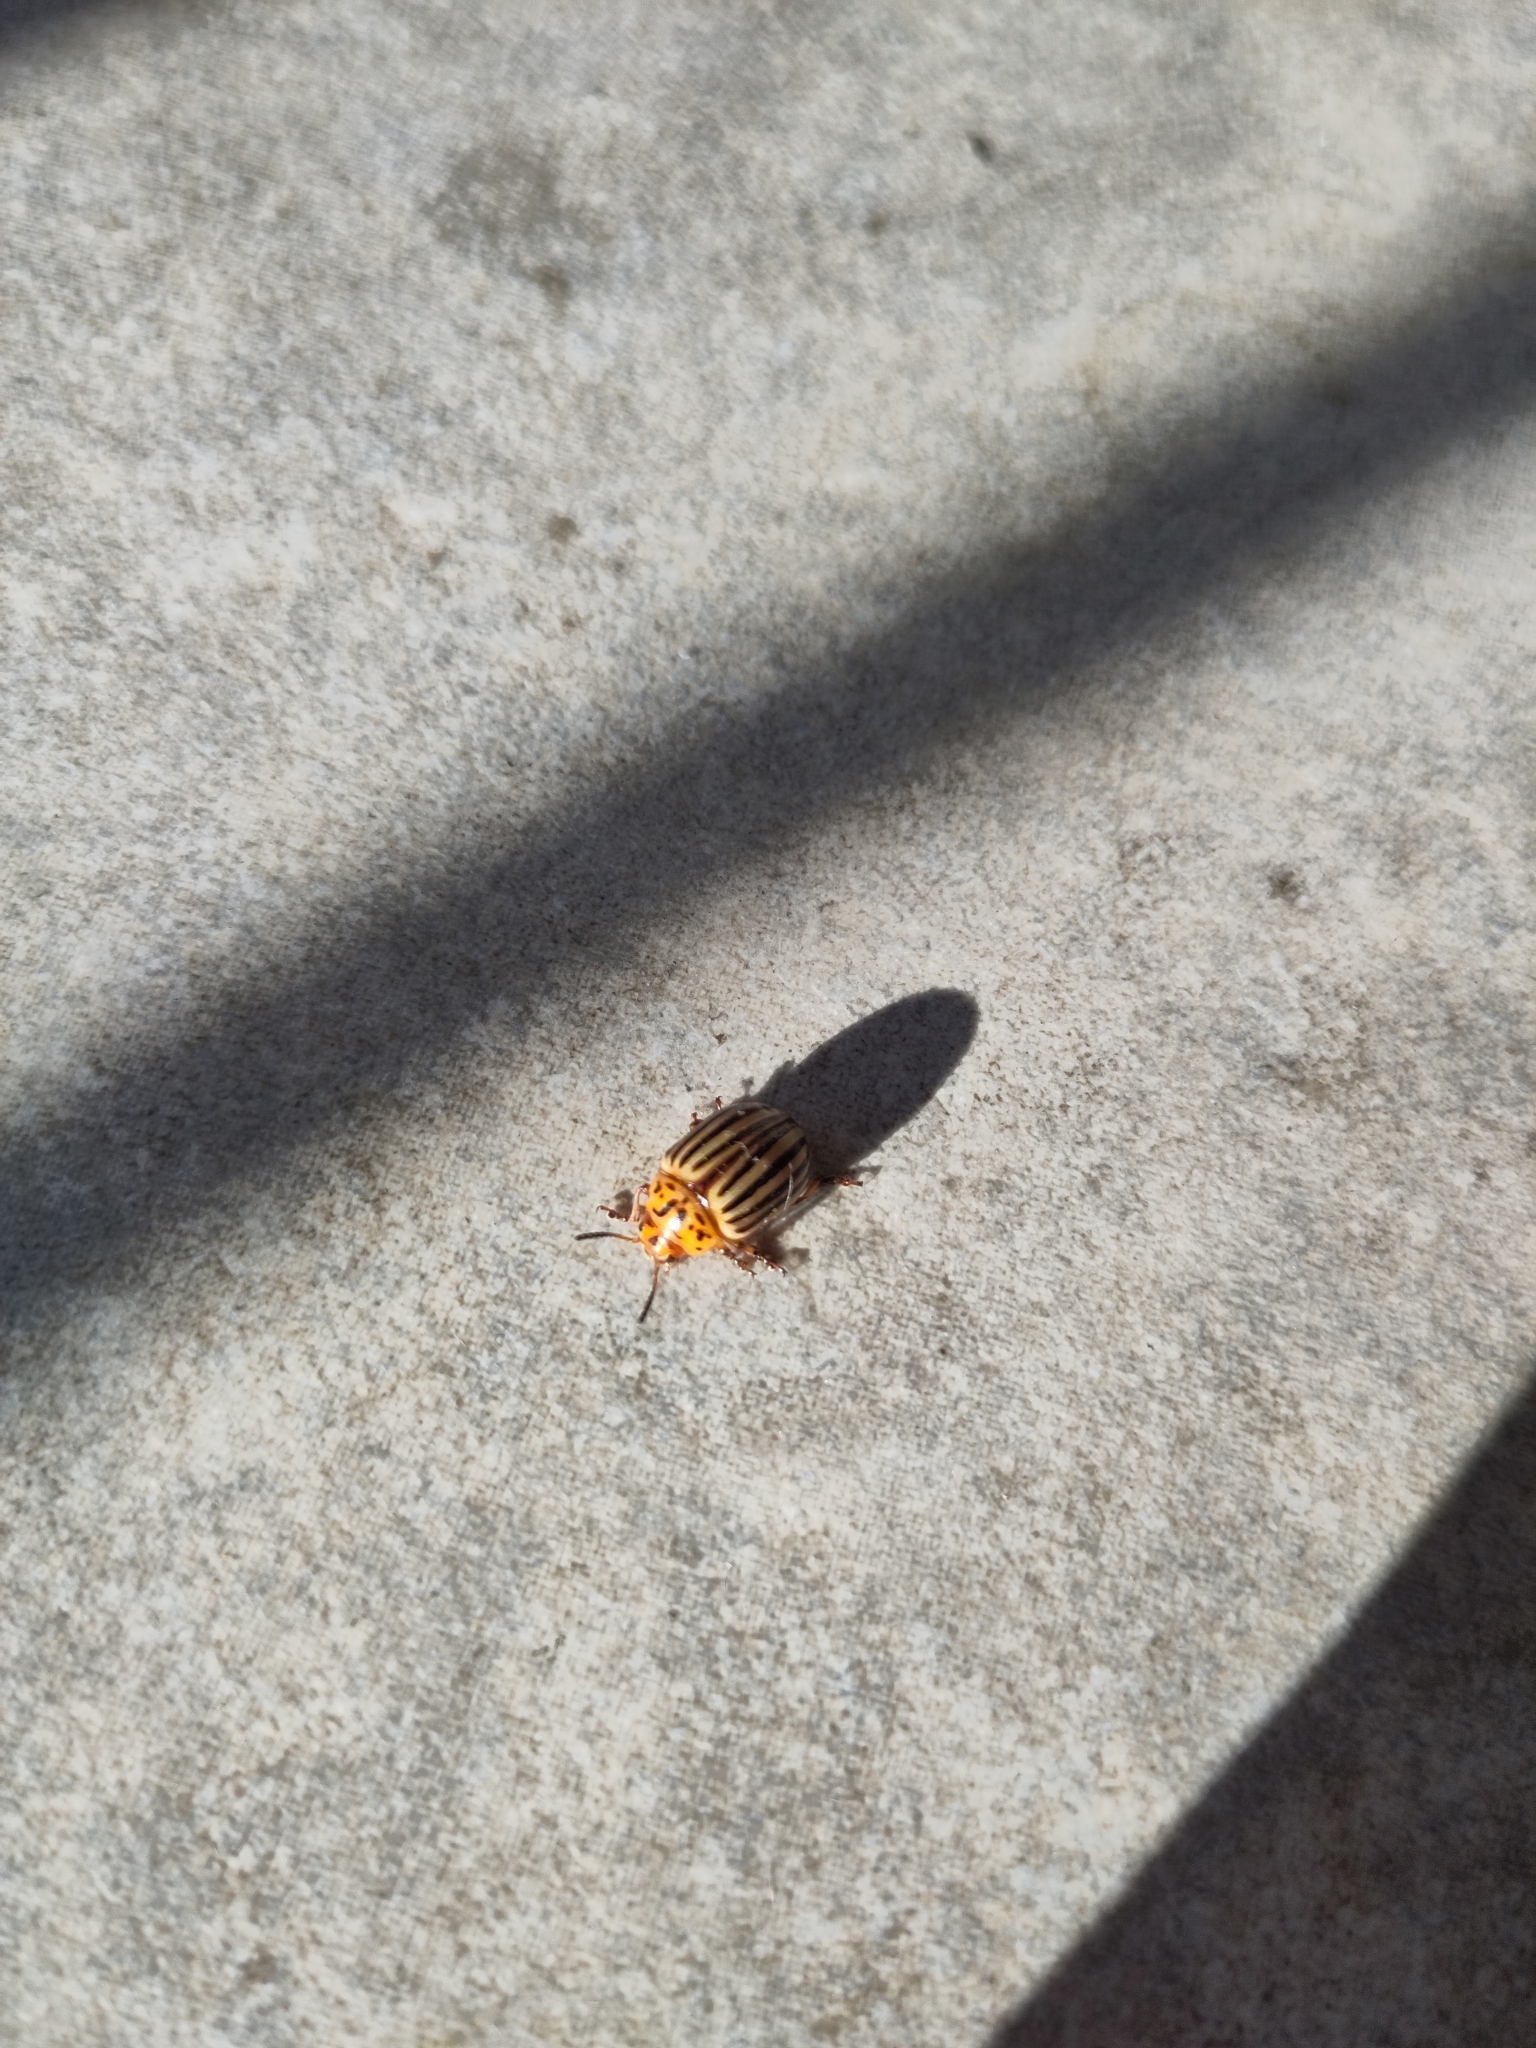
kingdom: Animalia
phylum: Arthropoda
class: Insecta
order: Coleoptera
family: Chrysomelidae
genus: Leptinotarsa
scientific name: Leptinotarsa decemlineata
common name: Colorado potato beetle
